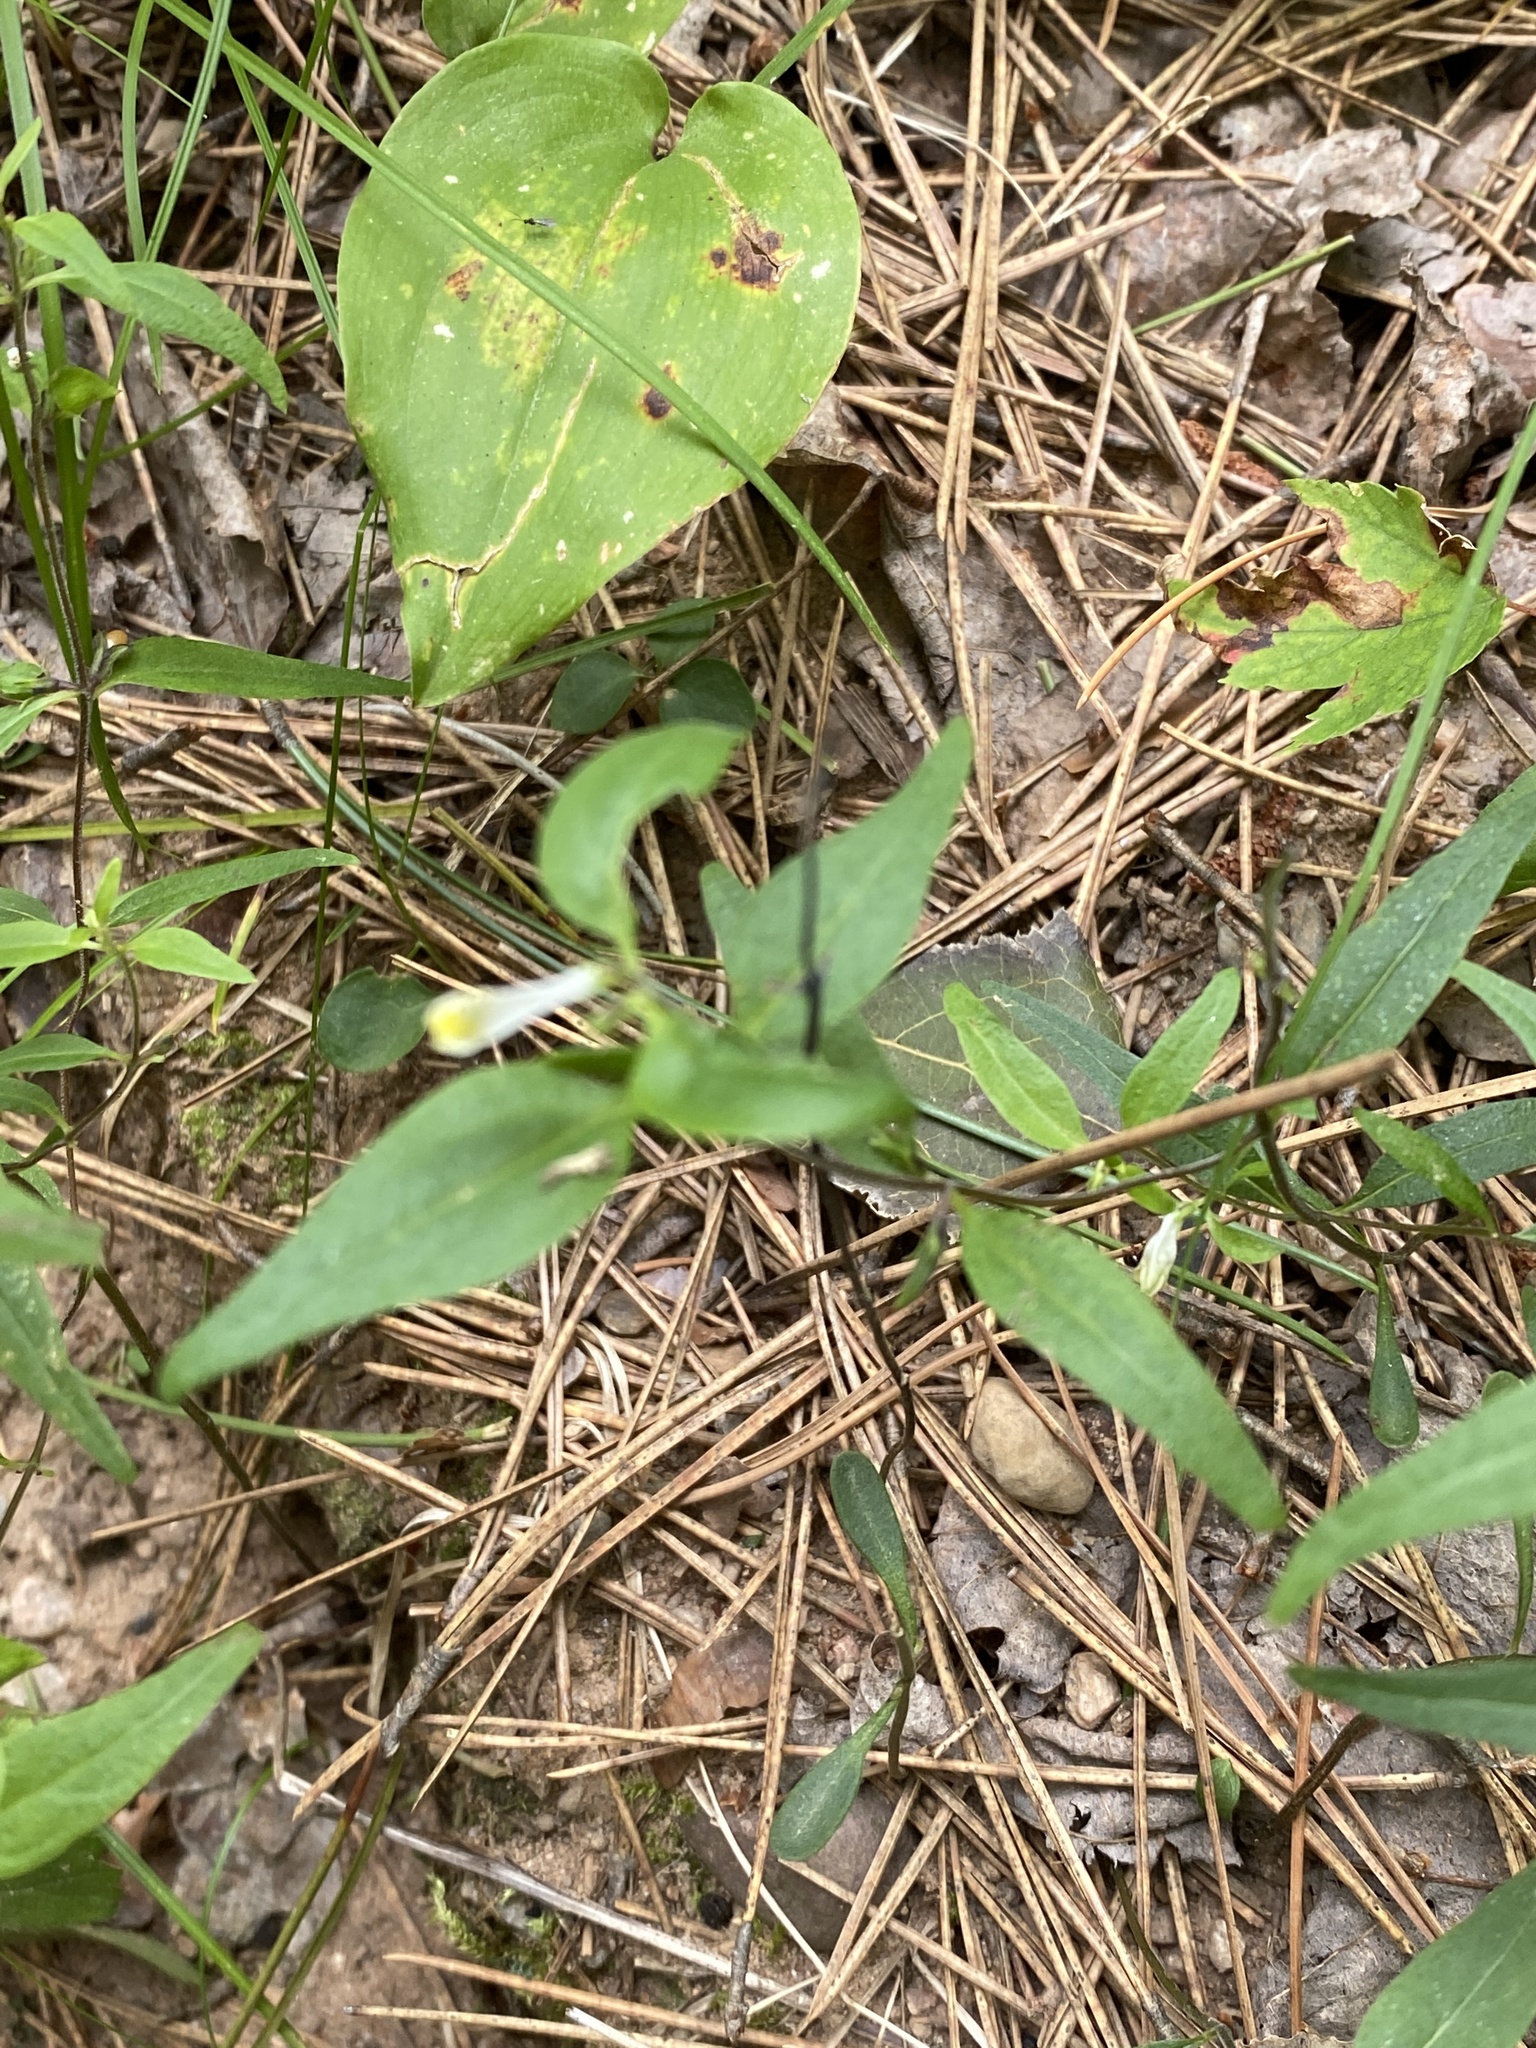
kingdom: Plantae
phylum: Tracheophyta
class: Magnoliopsida
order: Lamiales
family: Orobanchaceae
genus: Melampyrum
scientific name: Melampyrum lineare
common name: American cow-wheat
